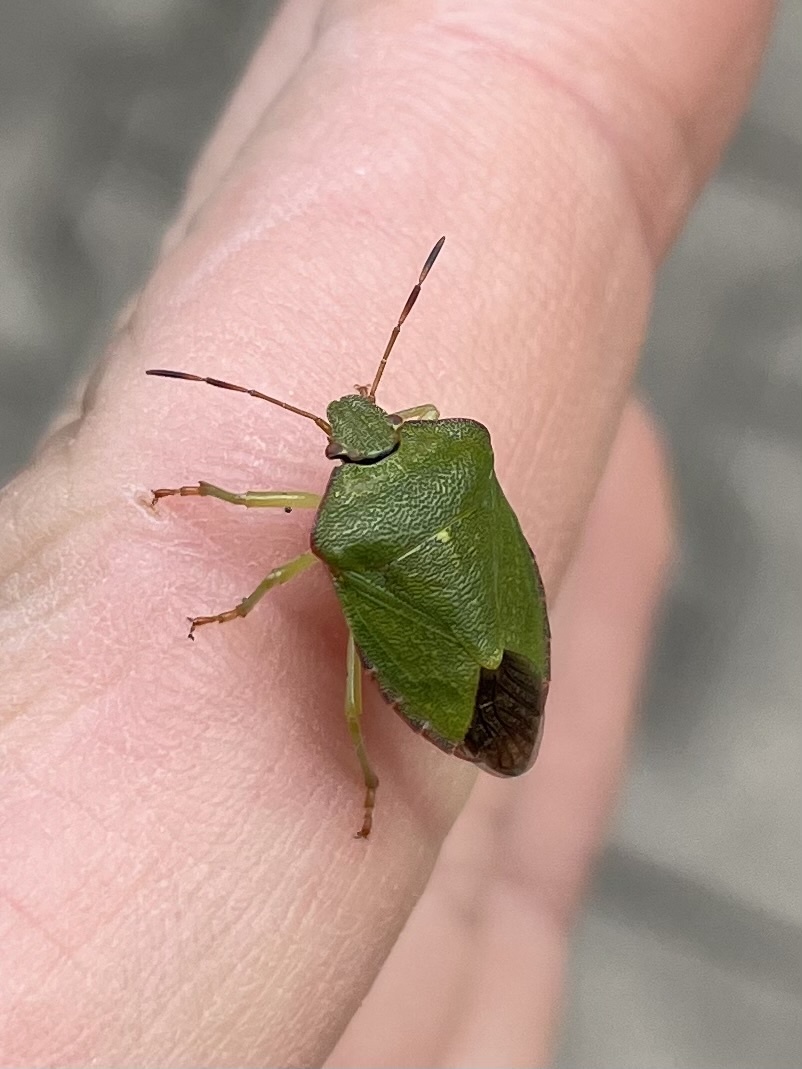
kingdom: Animalia
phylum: Arthropoda
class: Insecta
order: Hemiptera
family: Pentatomidae
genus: Palomena
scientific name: Palomena prasina
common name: Green shieldbug
